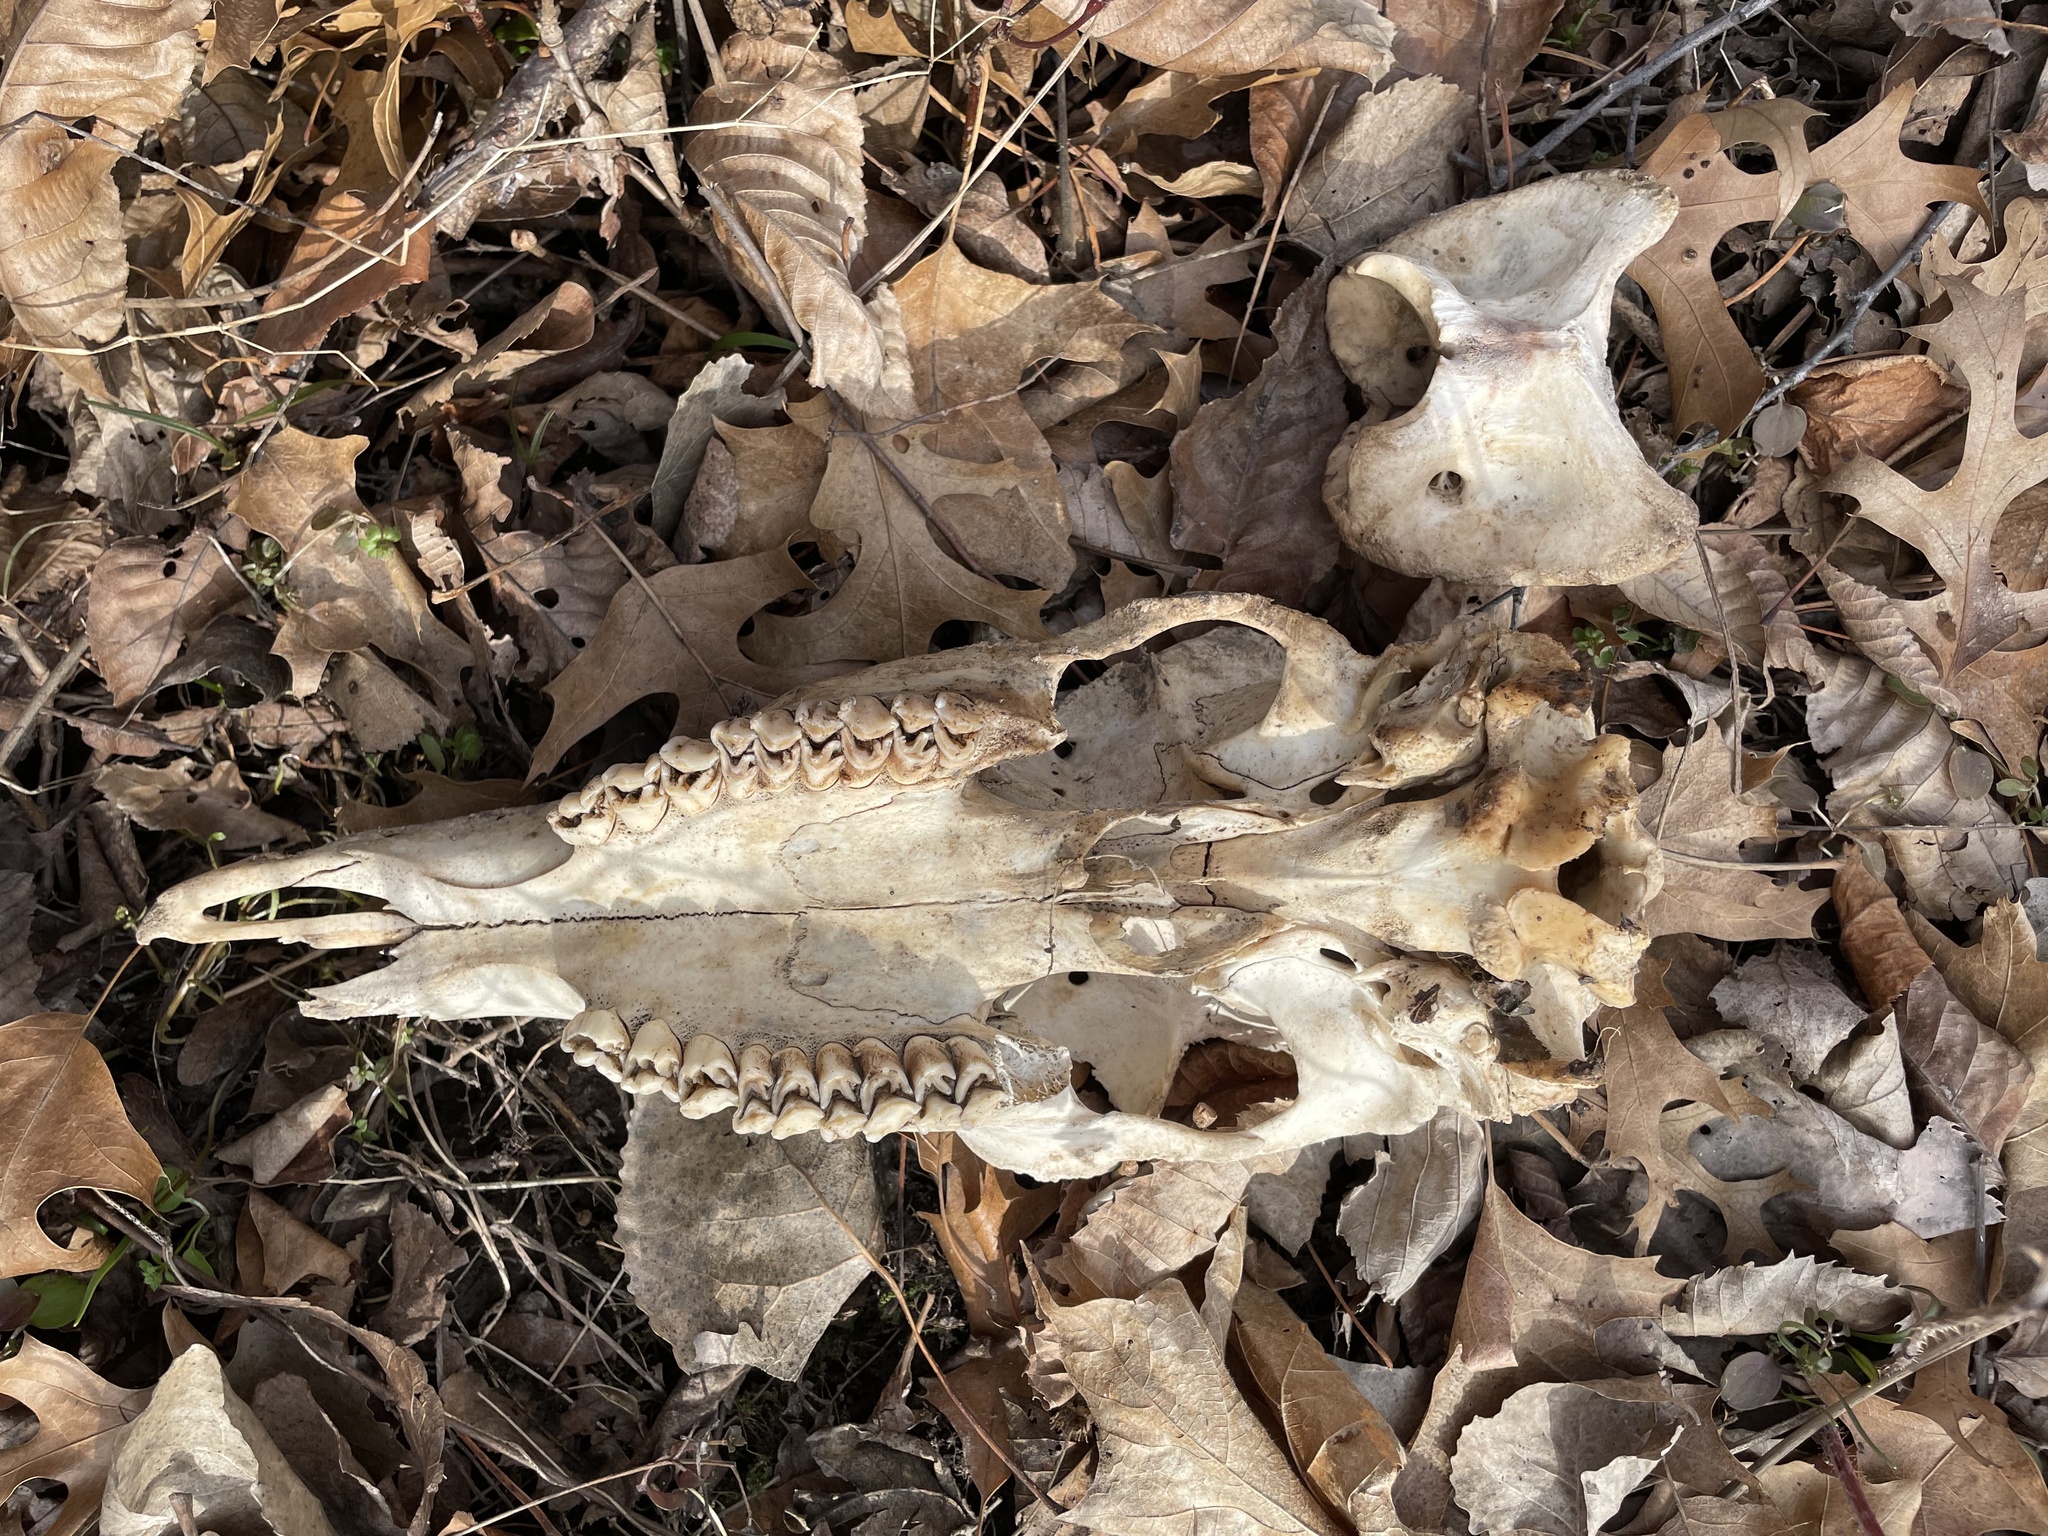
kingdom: Animalia
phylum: Chordata
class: Mammalia
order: Artiodactyla
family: Cervidae
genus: Odocoileus
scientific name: Odocoileus virginianus
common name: White-tailed deer
